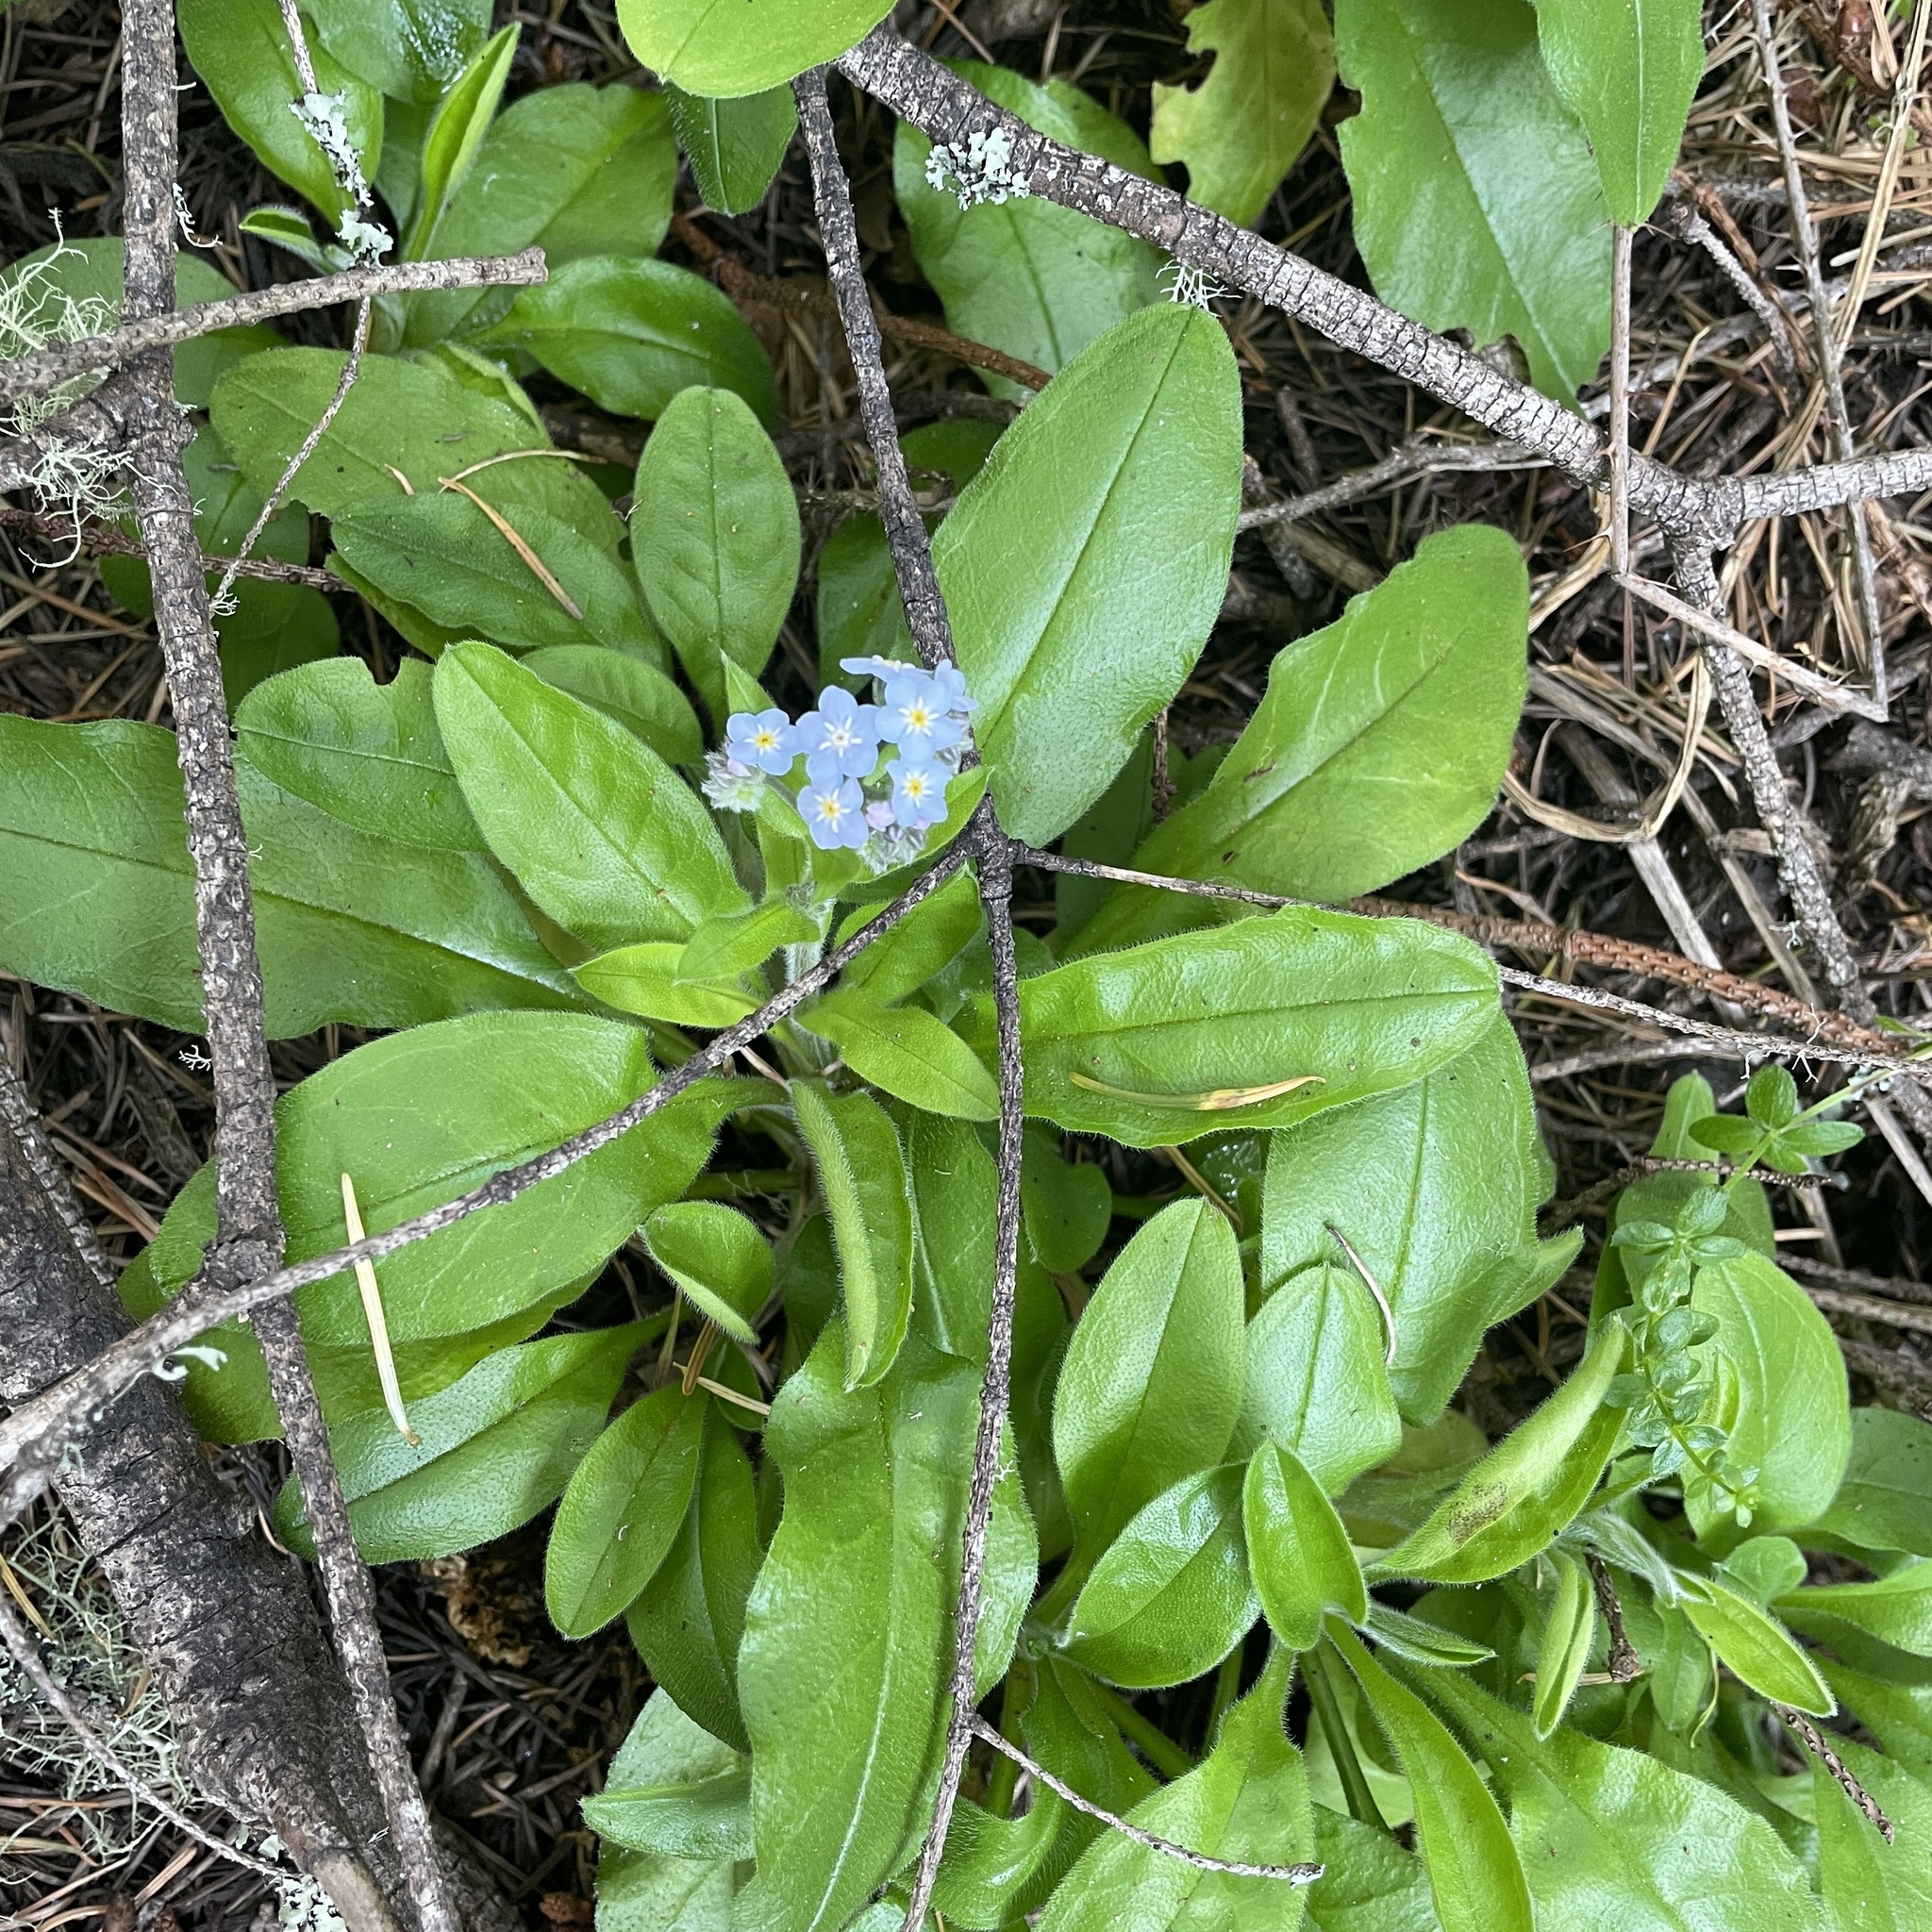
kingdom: Plantae
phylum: Tracheophyta
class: Magnoliopsida
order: Boraginales
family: Boraginaceae
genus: Myosotis
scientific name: Myosotis latifolia
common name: Broadleaf forget-me-not
